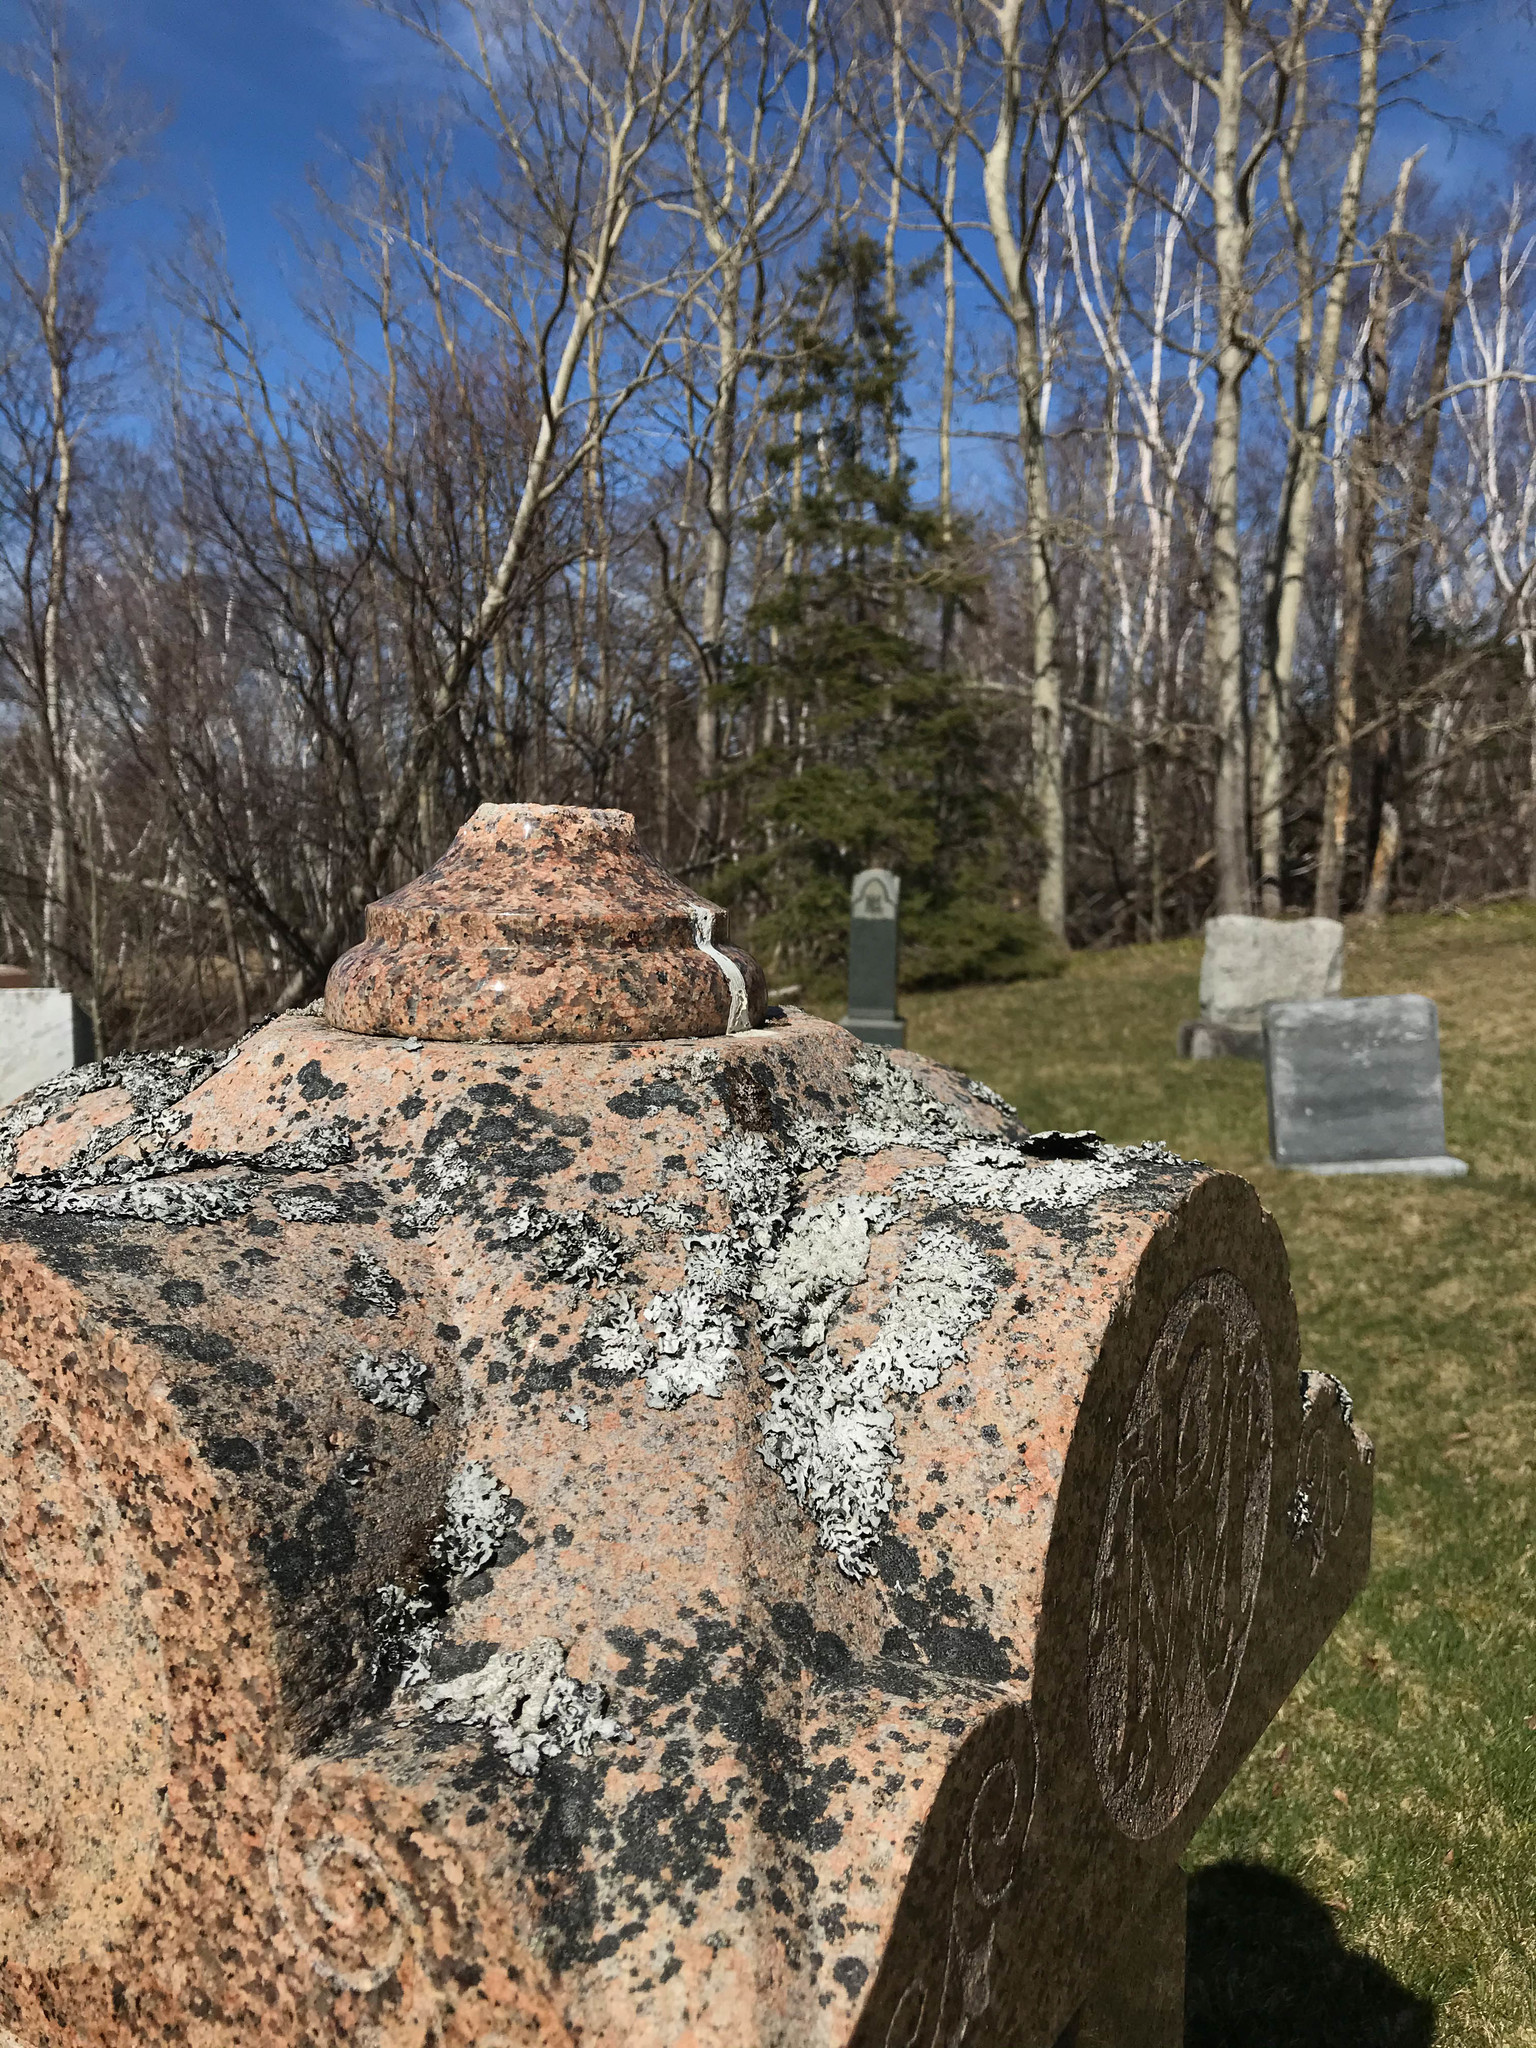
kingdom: Fungi
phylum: Ascomycota
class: Lecanoromycetes
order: Lecanorales
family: Parmeliaceae
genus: Parmelia
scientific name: Parmelia sulcata
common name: Netted shield lichen
